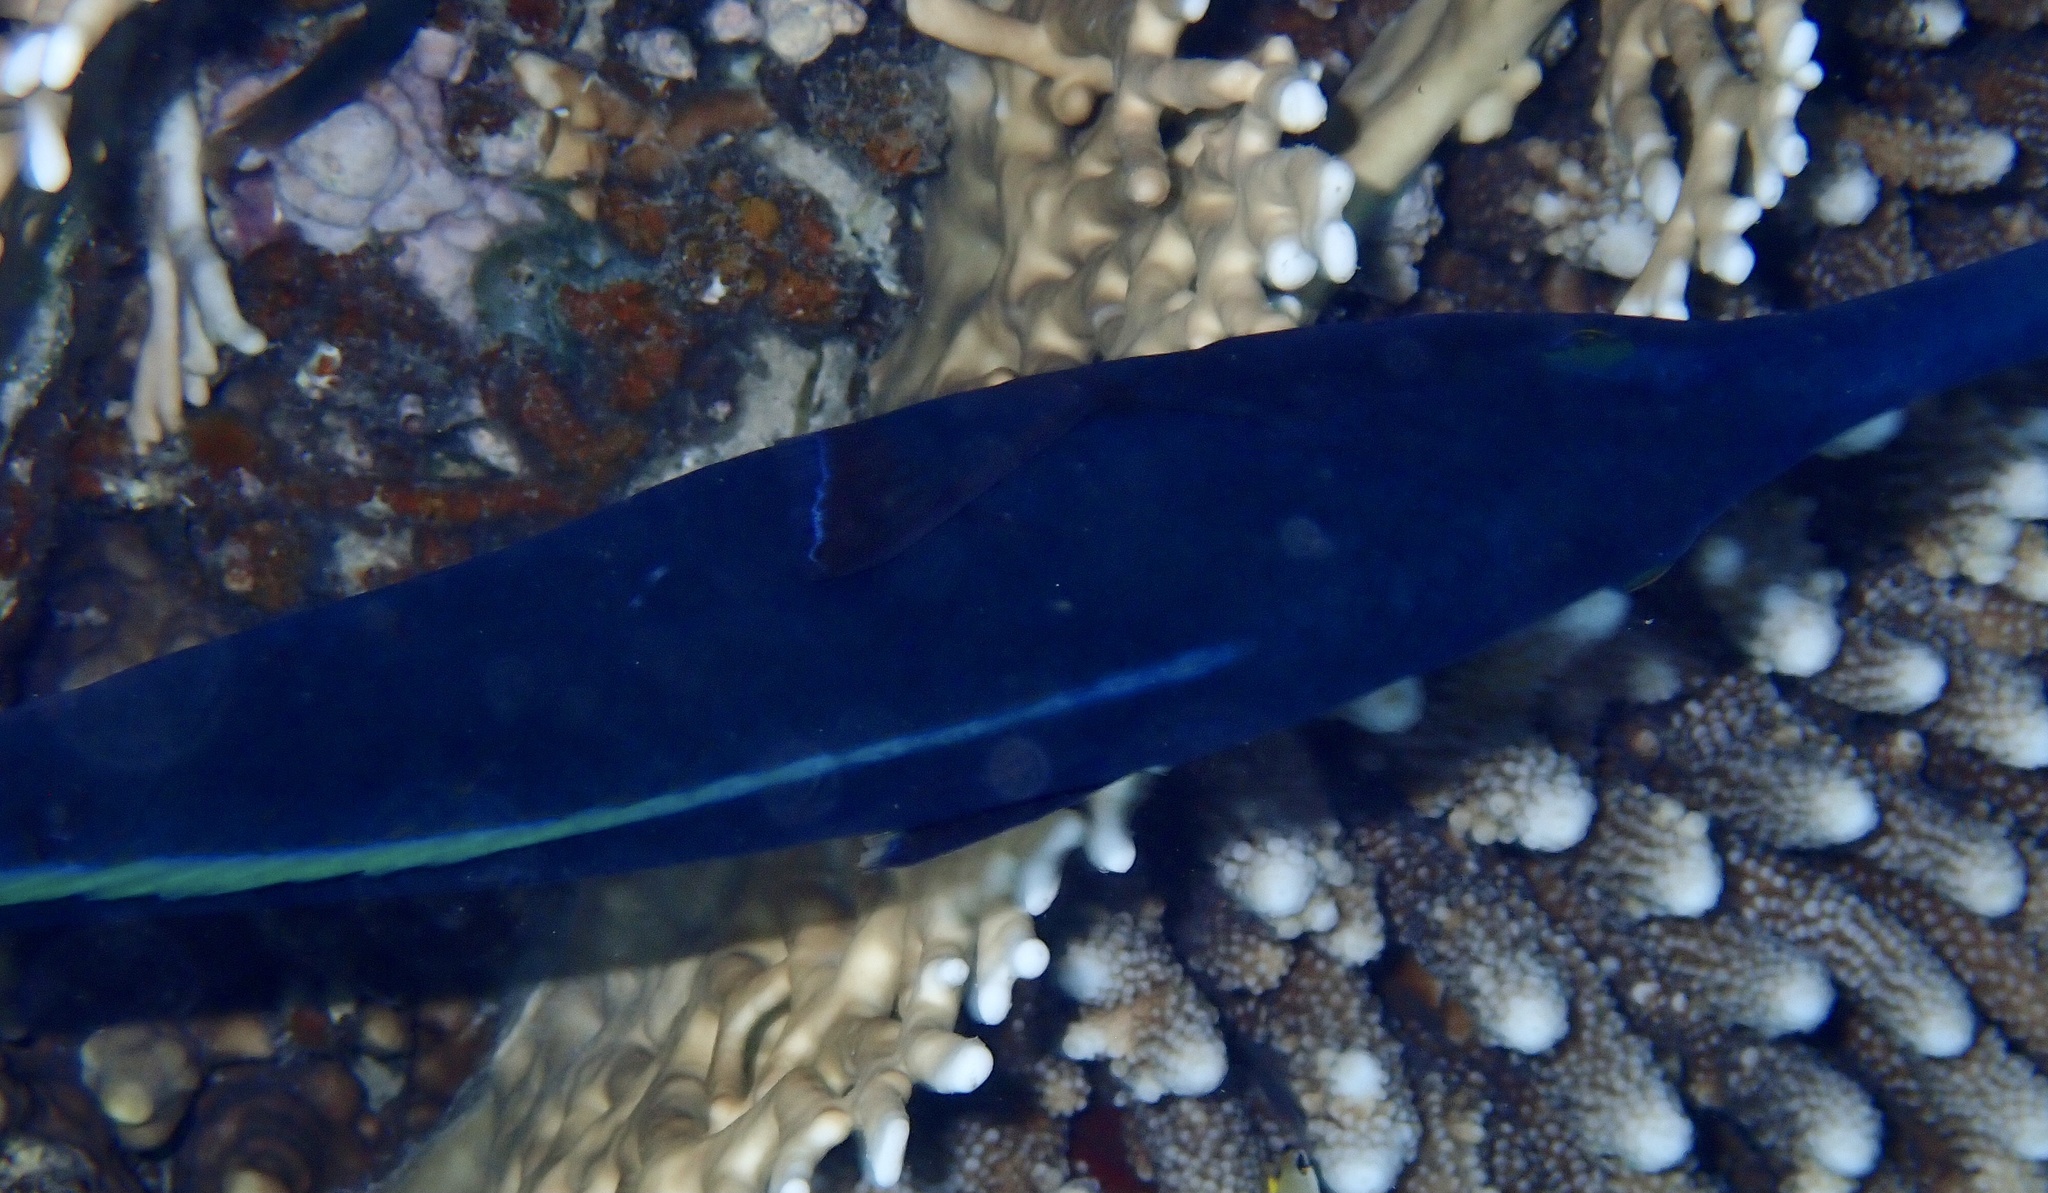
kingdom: Animalia
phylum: Chordata
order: Perciformes
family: Labridae
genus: Gomphosus
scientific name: Gomphosus klunzingeri
